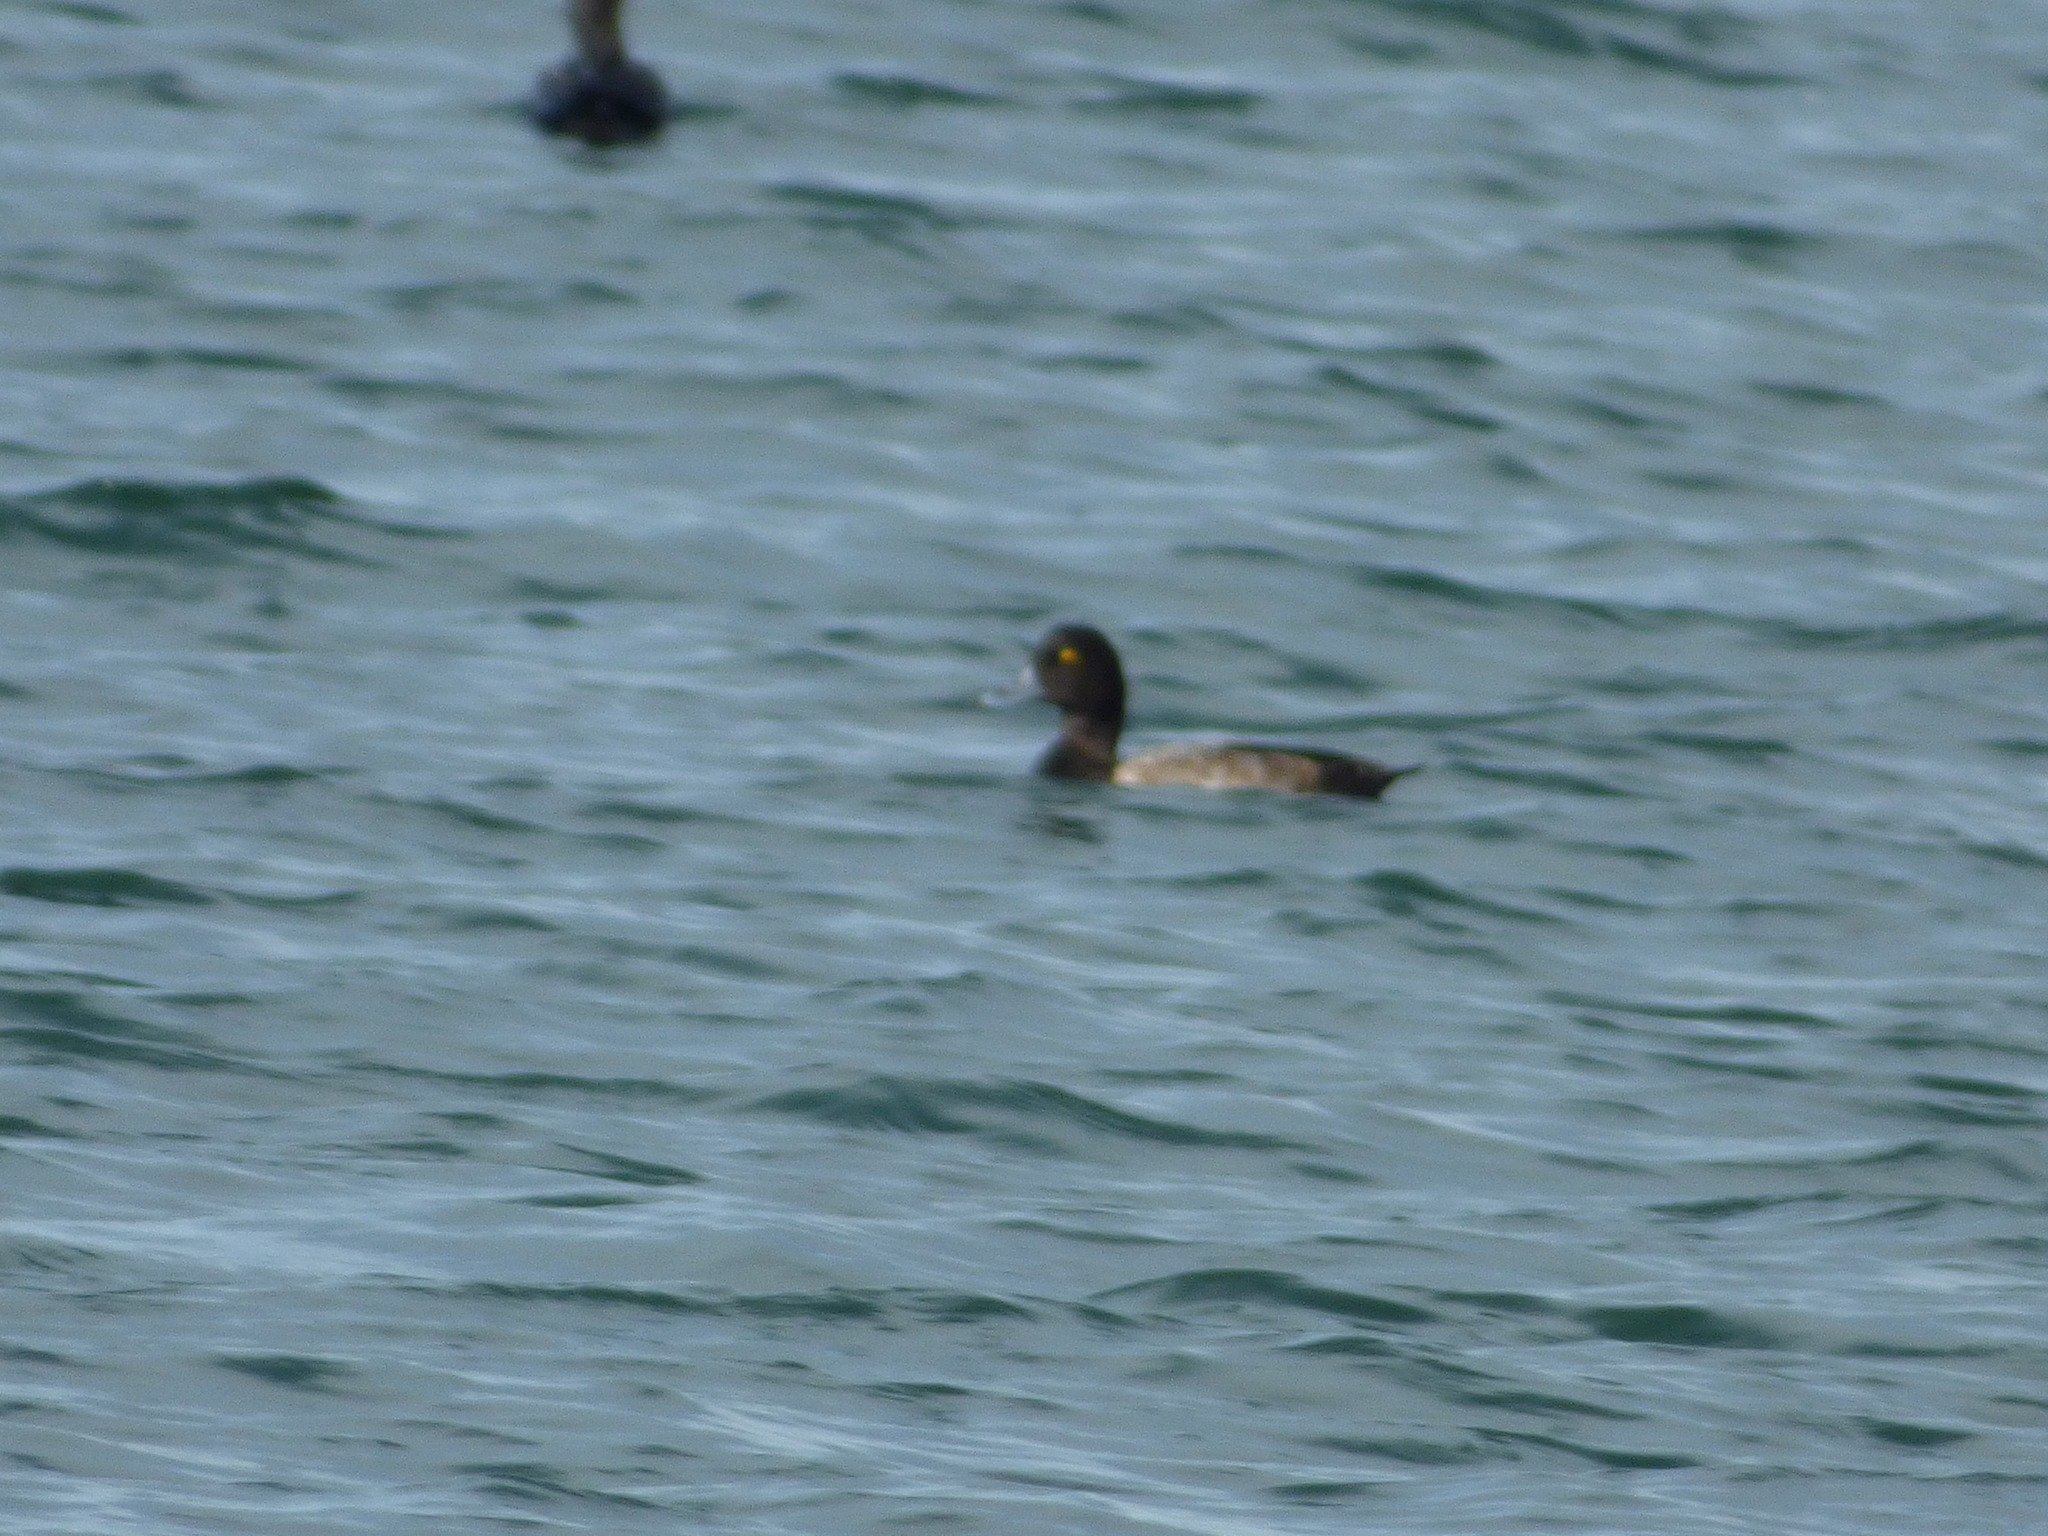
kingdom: Animalia
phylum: Chordata
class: Aves
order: Anseriformes
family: Anatidae
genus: Aythya
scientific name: Aythya affinis
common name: Lesser scaup
